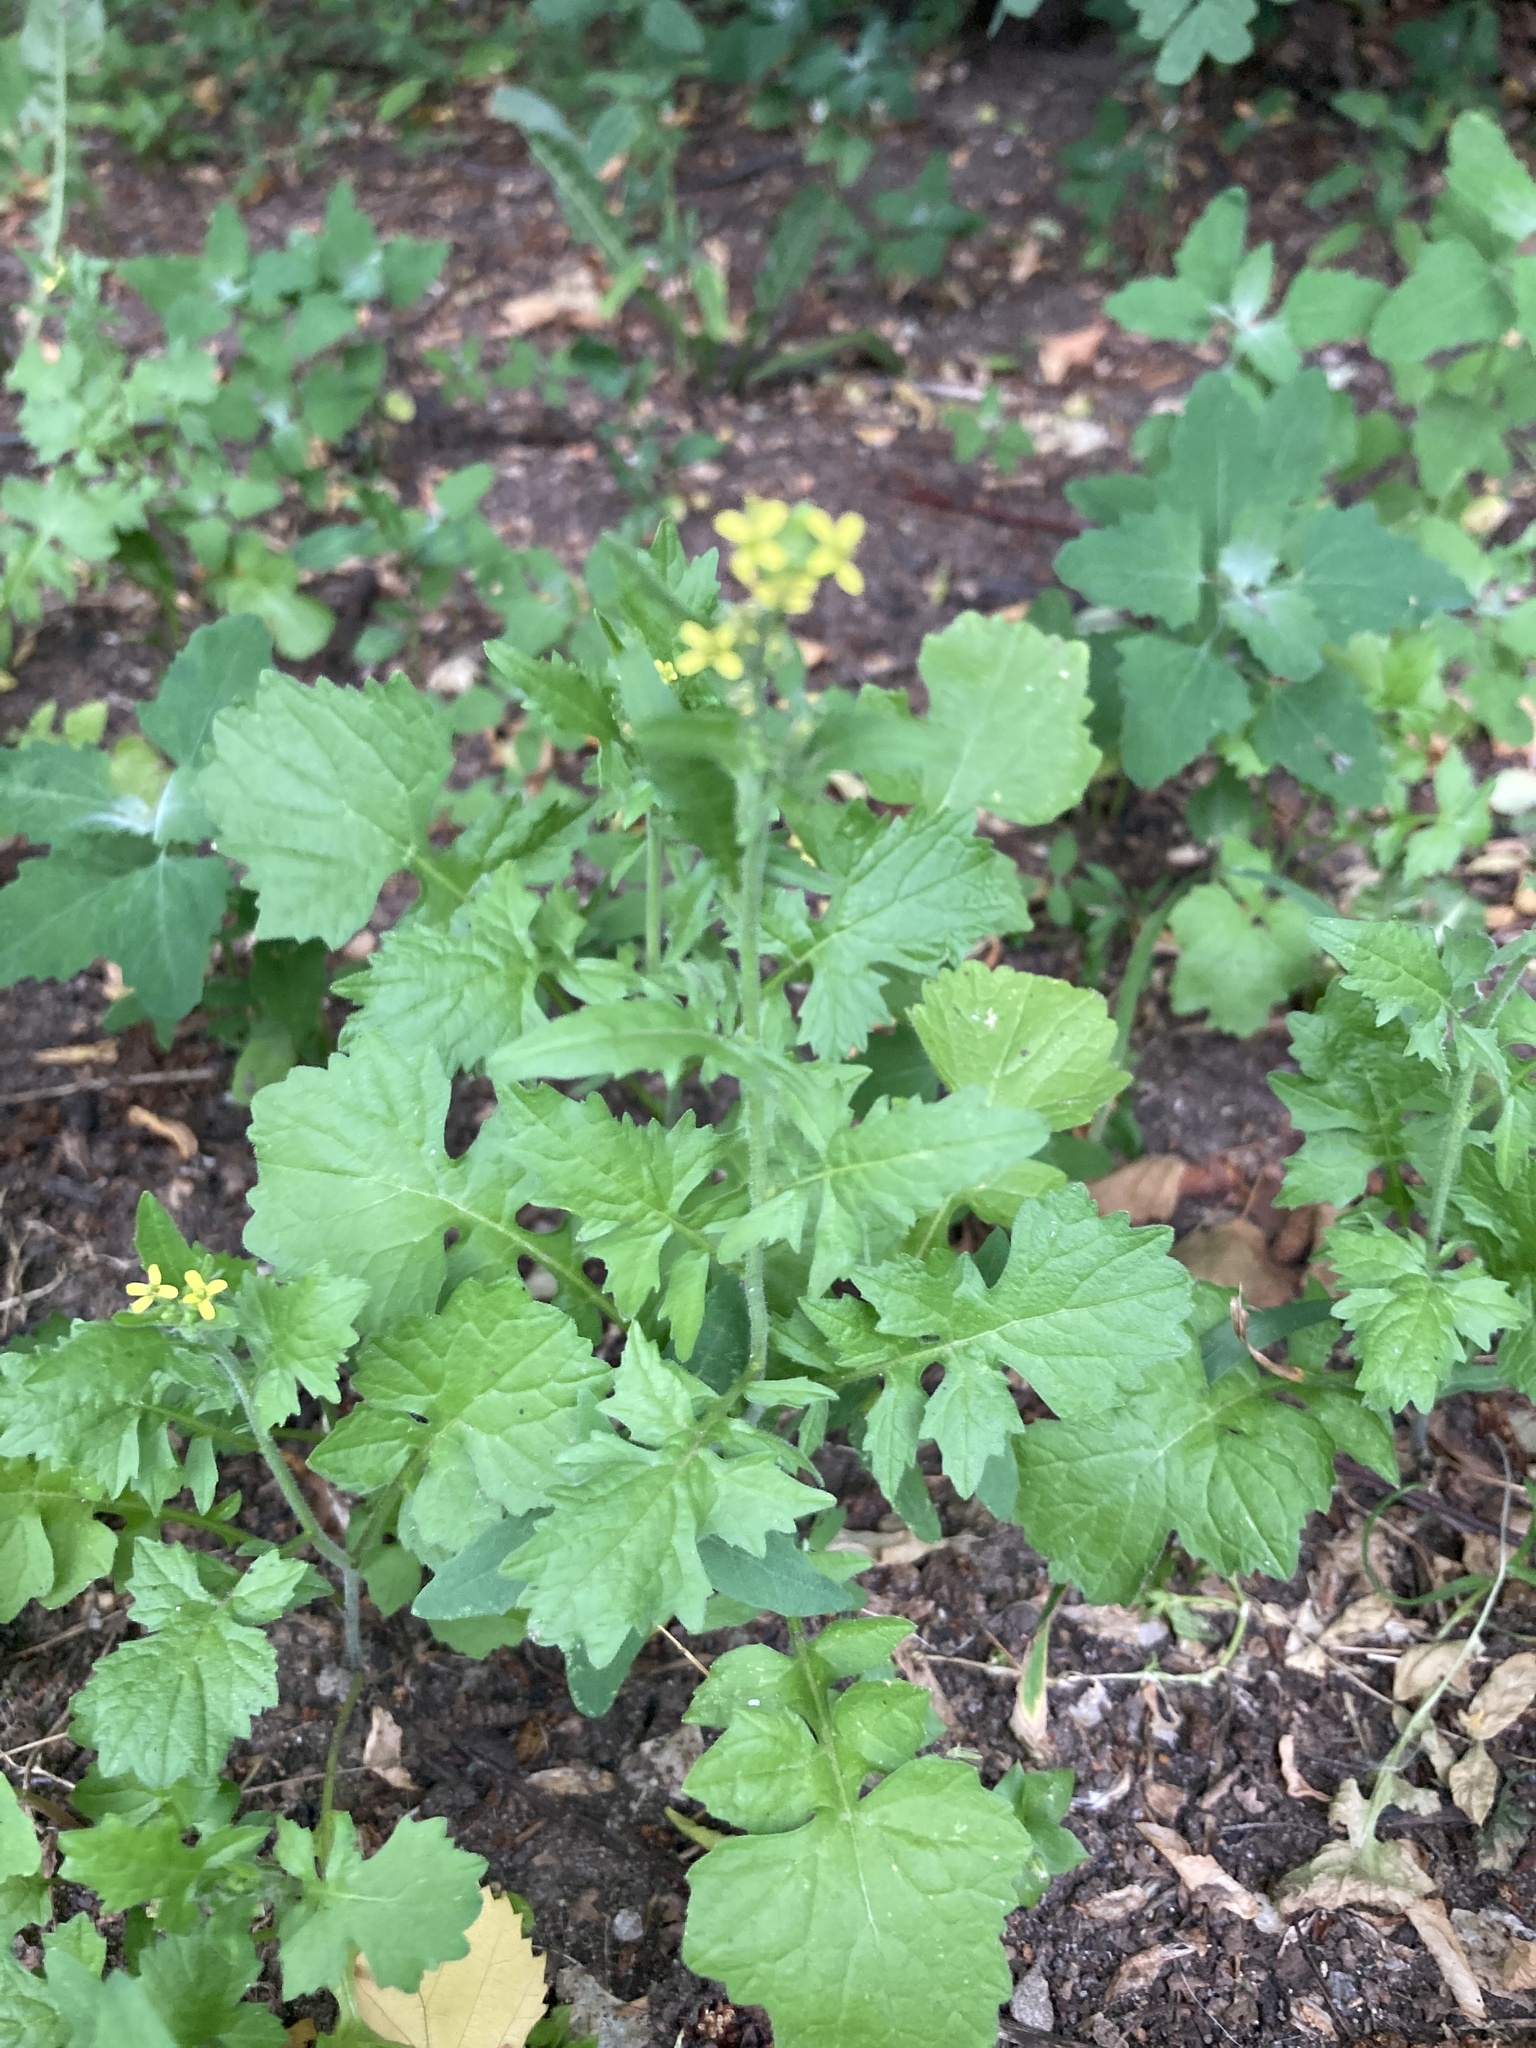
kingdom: Plantae
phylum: Tracheophyta
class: Magnoliopsida
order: Brassicales
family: Brassicaceae
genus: Sisymbrium
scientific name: Sisymbrium officinale
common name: Hedge mustard
